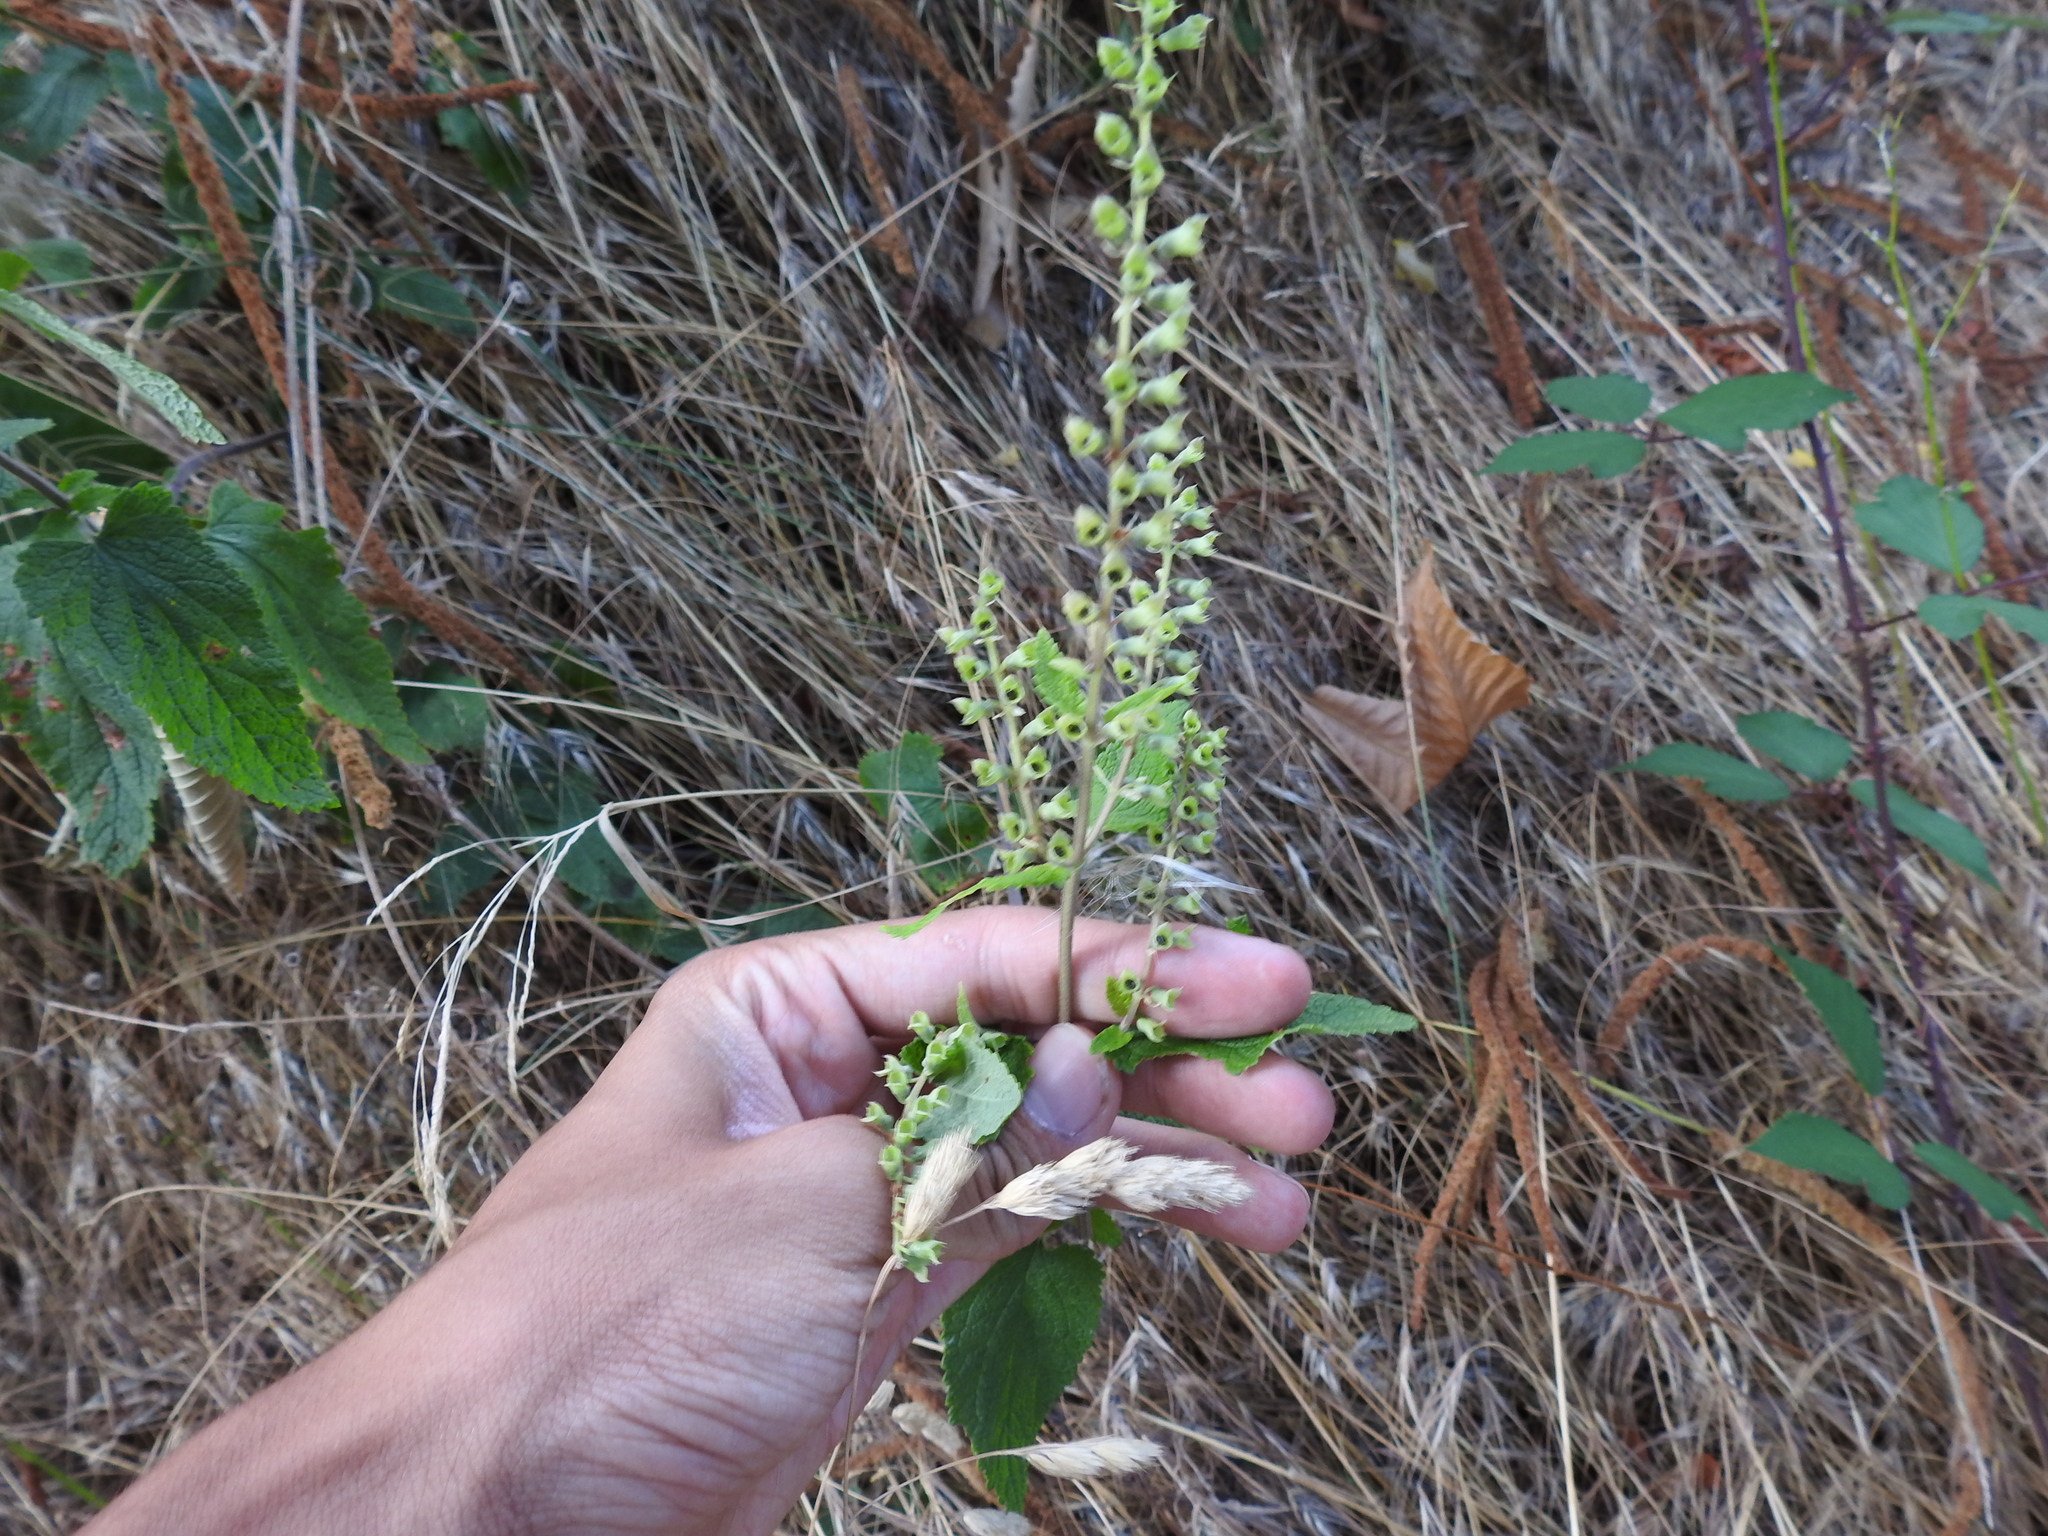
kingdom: Plantae
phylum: Tracheophyta
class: Magnoliopsida
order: Lamiales
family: Lamiaceae
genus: Teucrium
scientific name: Teucrium scorodonia
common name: Woodland germander
